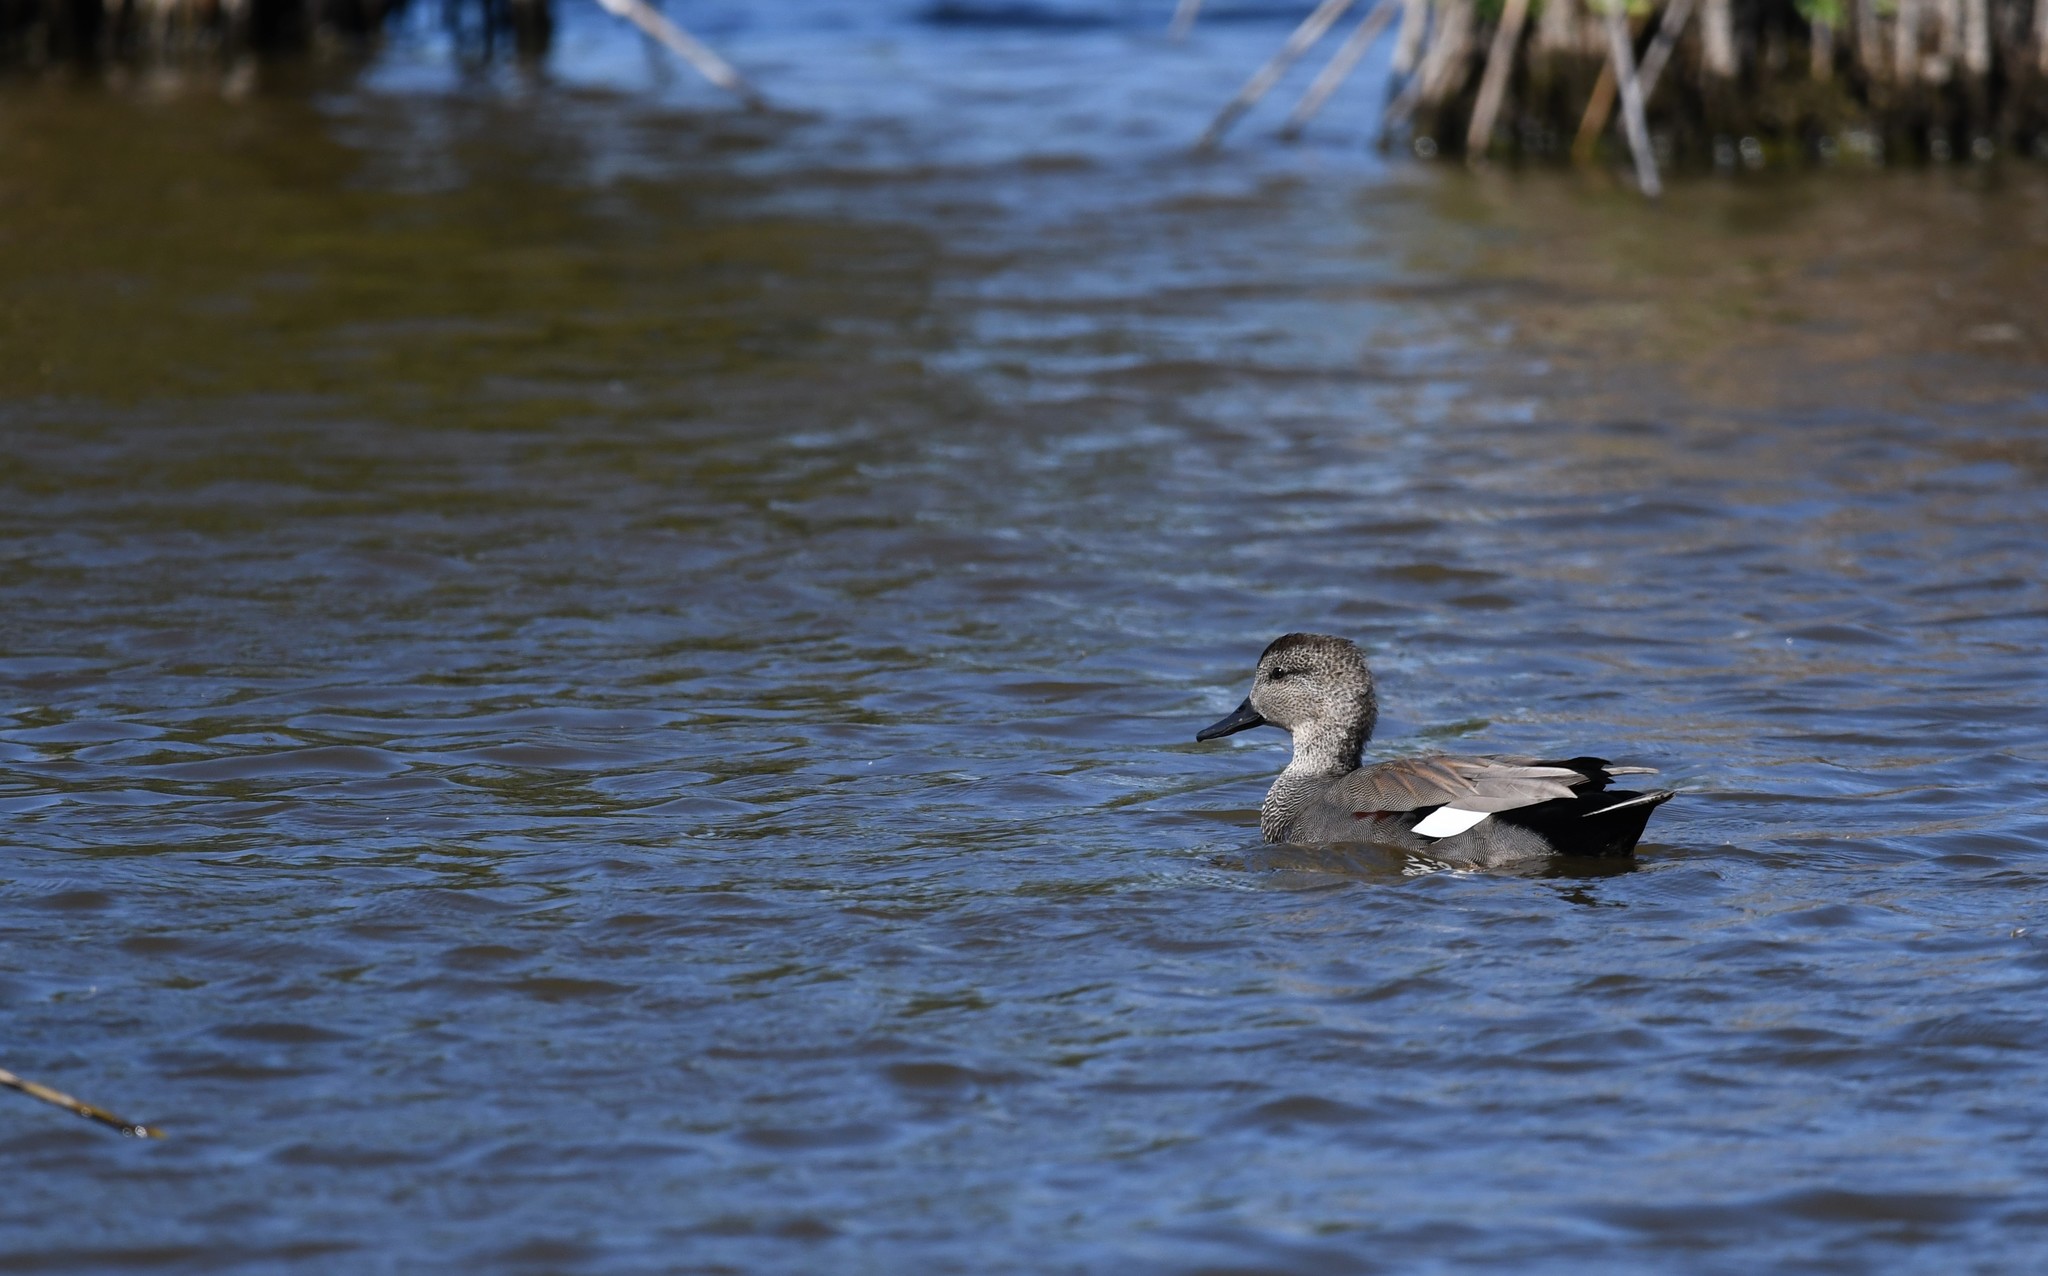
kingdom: Animalia
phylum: Chordata
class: Aves
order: Anseriformes
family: Anatidae
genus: Mareca
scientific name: Mareca strepera
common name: Gadwall
